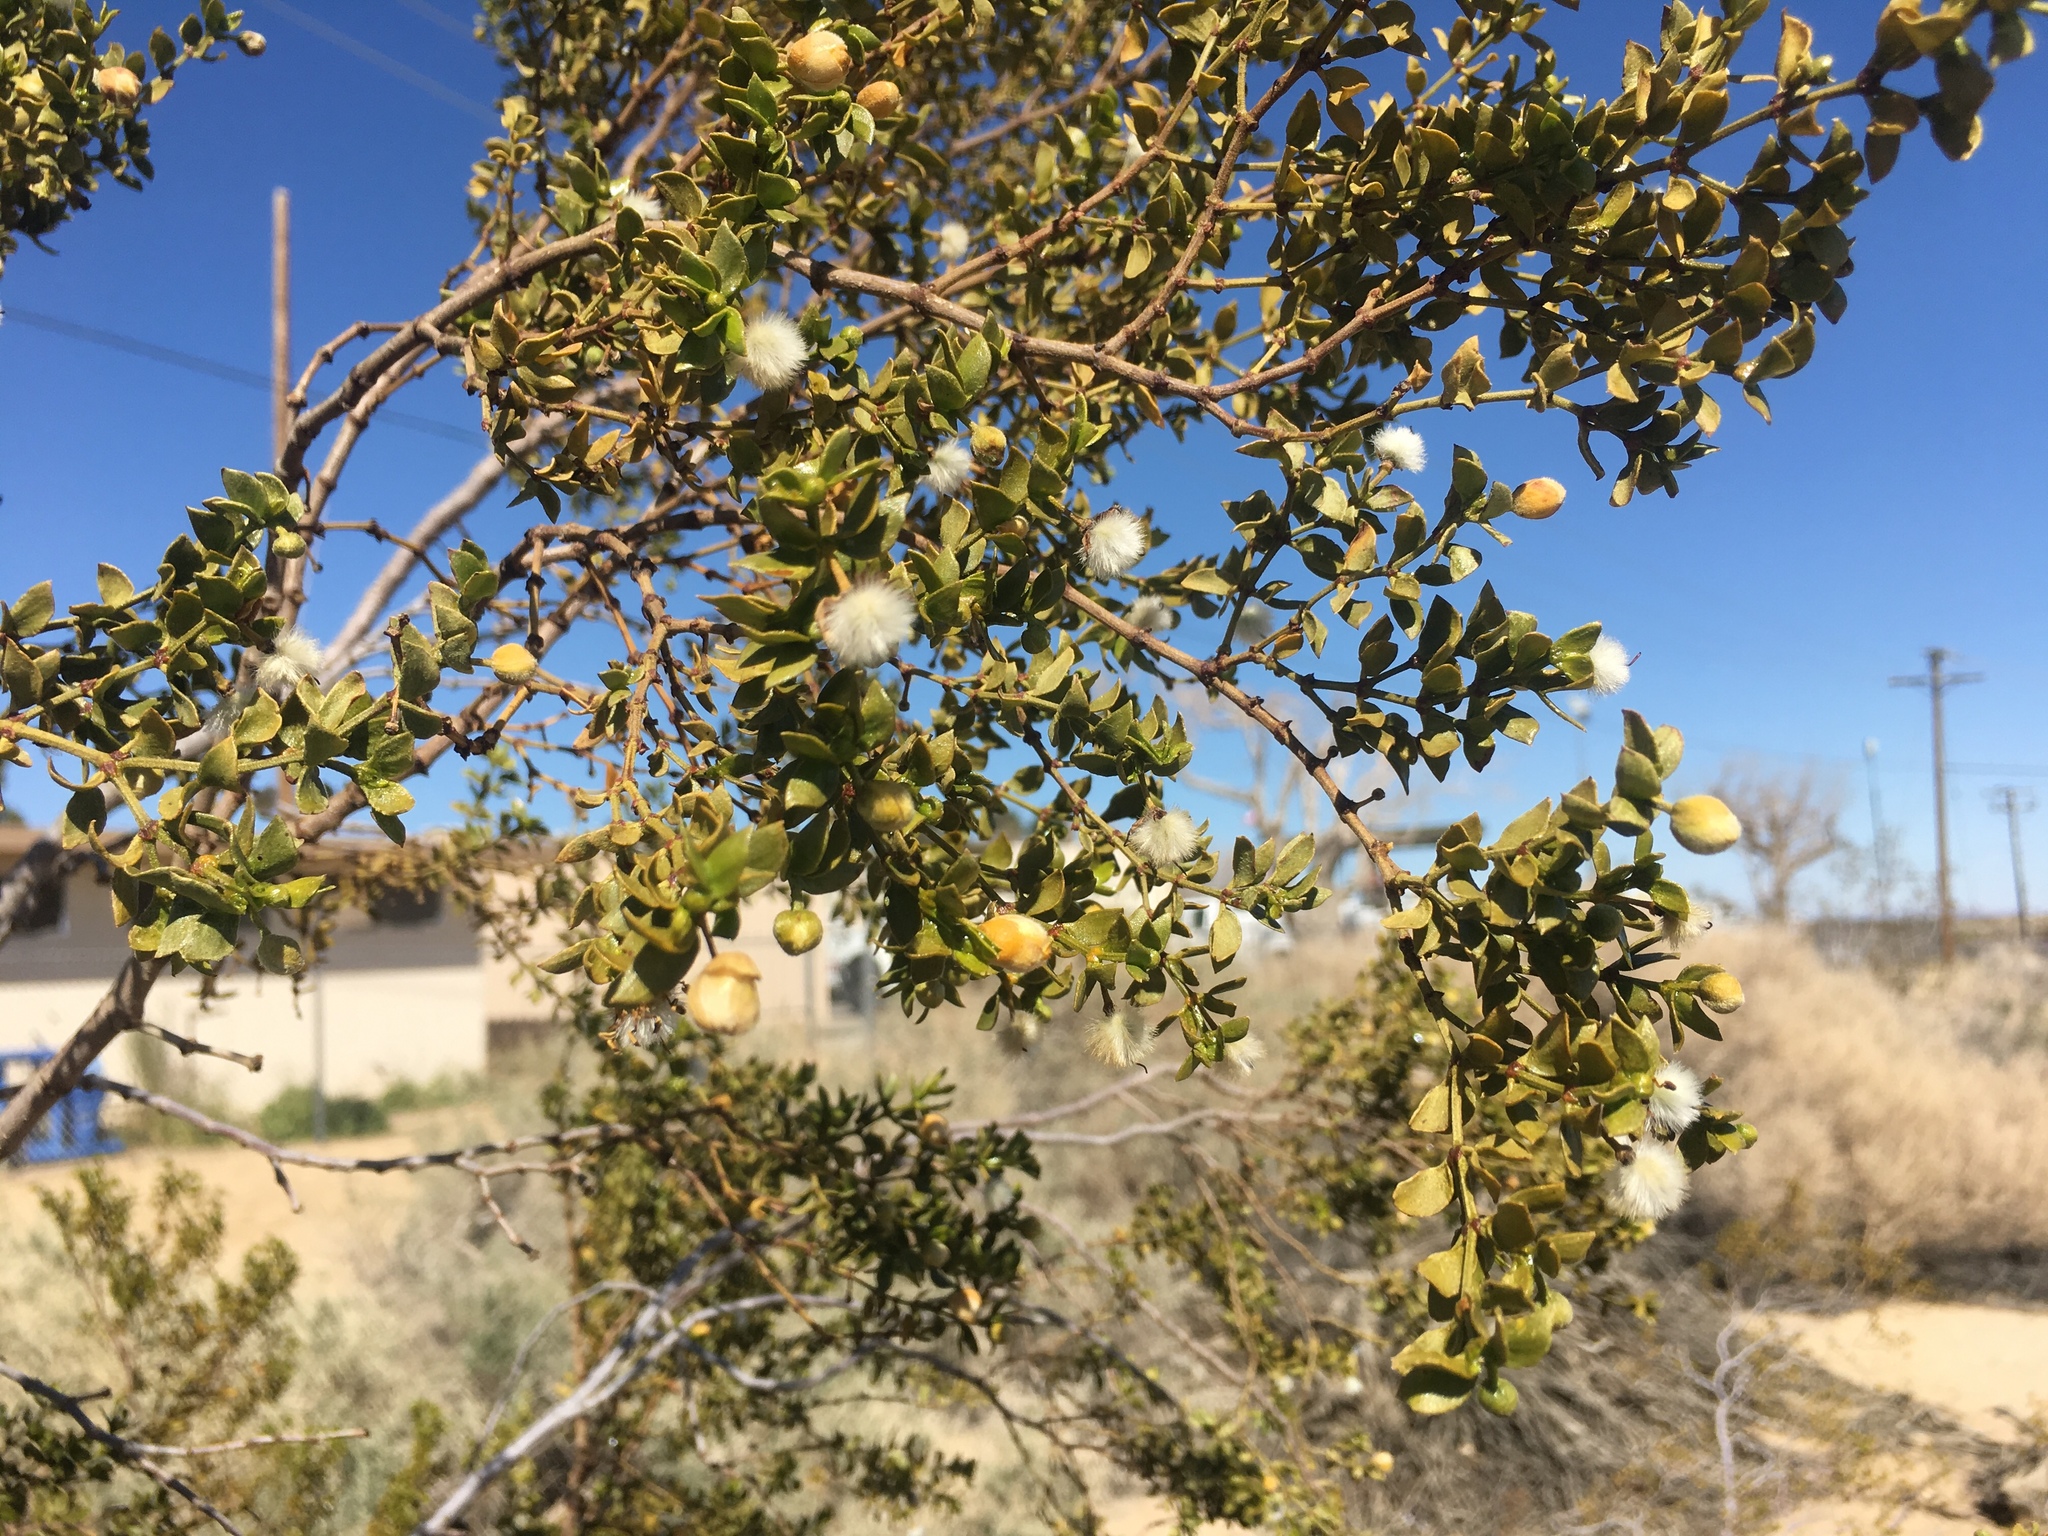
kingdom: Plantae
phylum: Tracheophyta
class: Magnoliopsida
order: Zygophyllales
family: Zygophyllaceae
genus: Larrea
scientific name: Larrea tridentata
